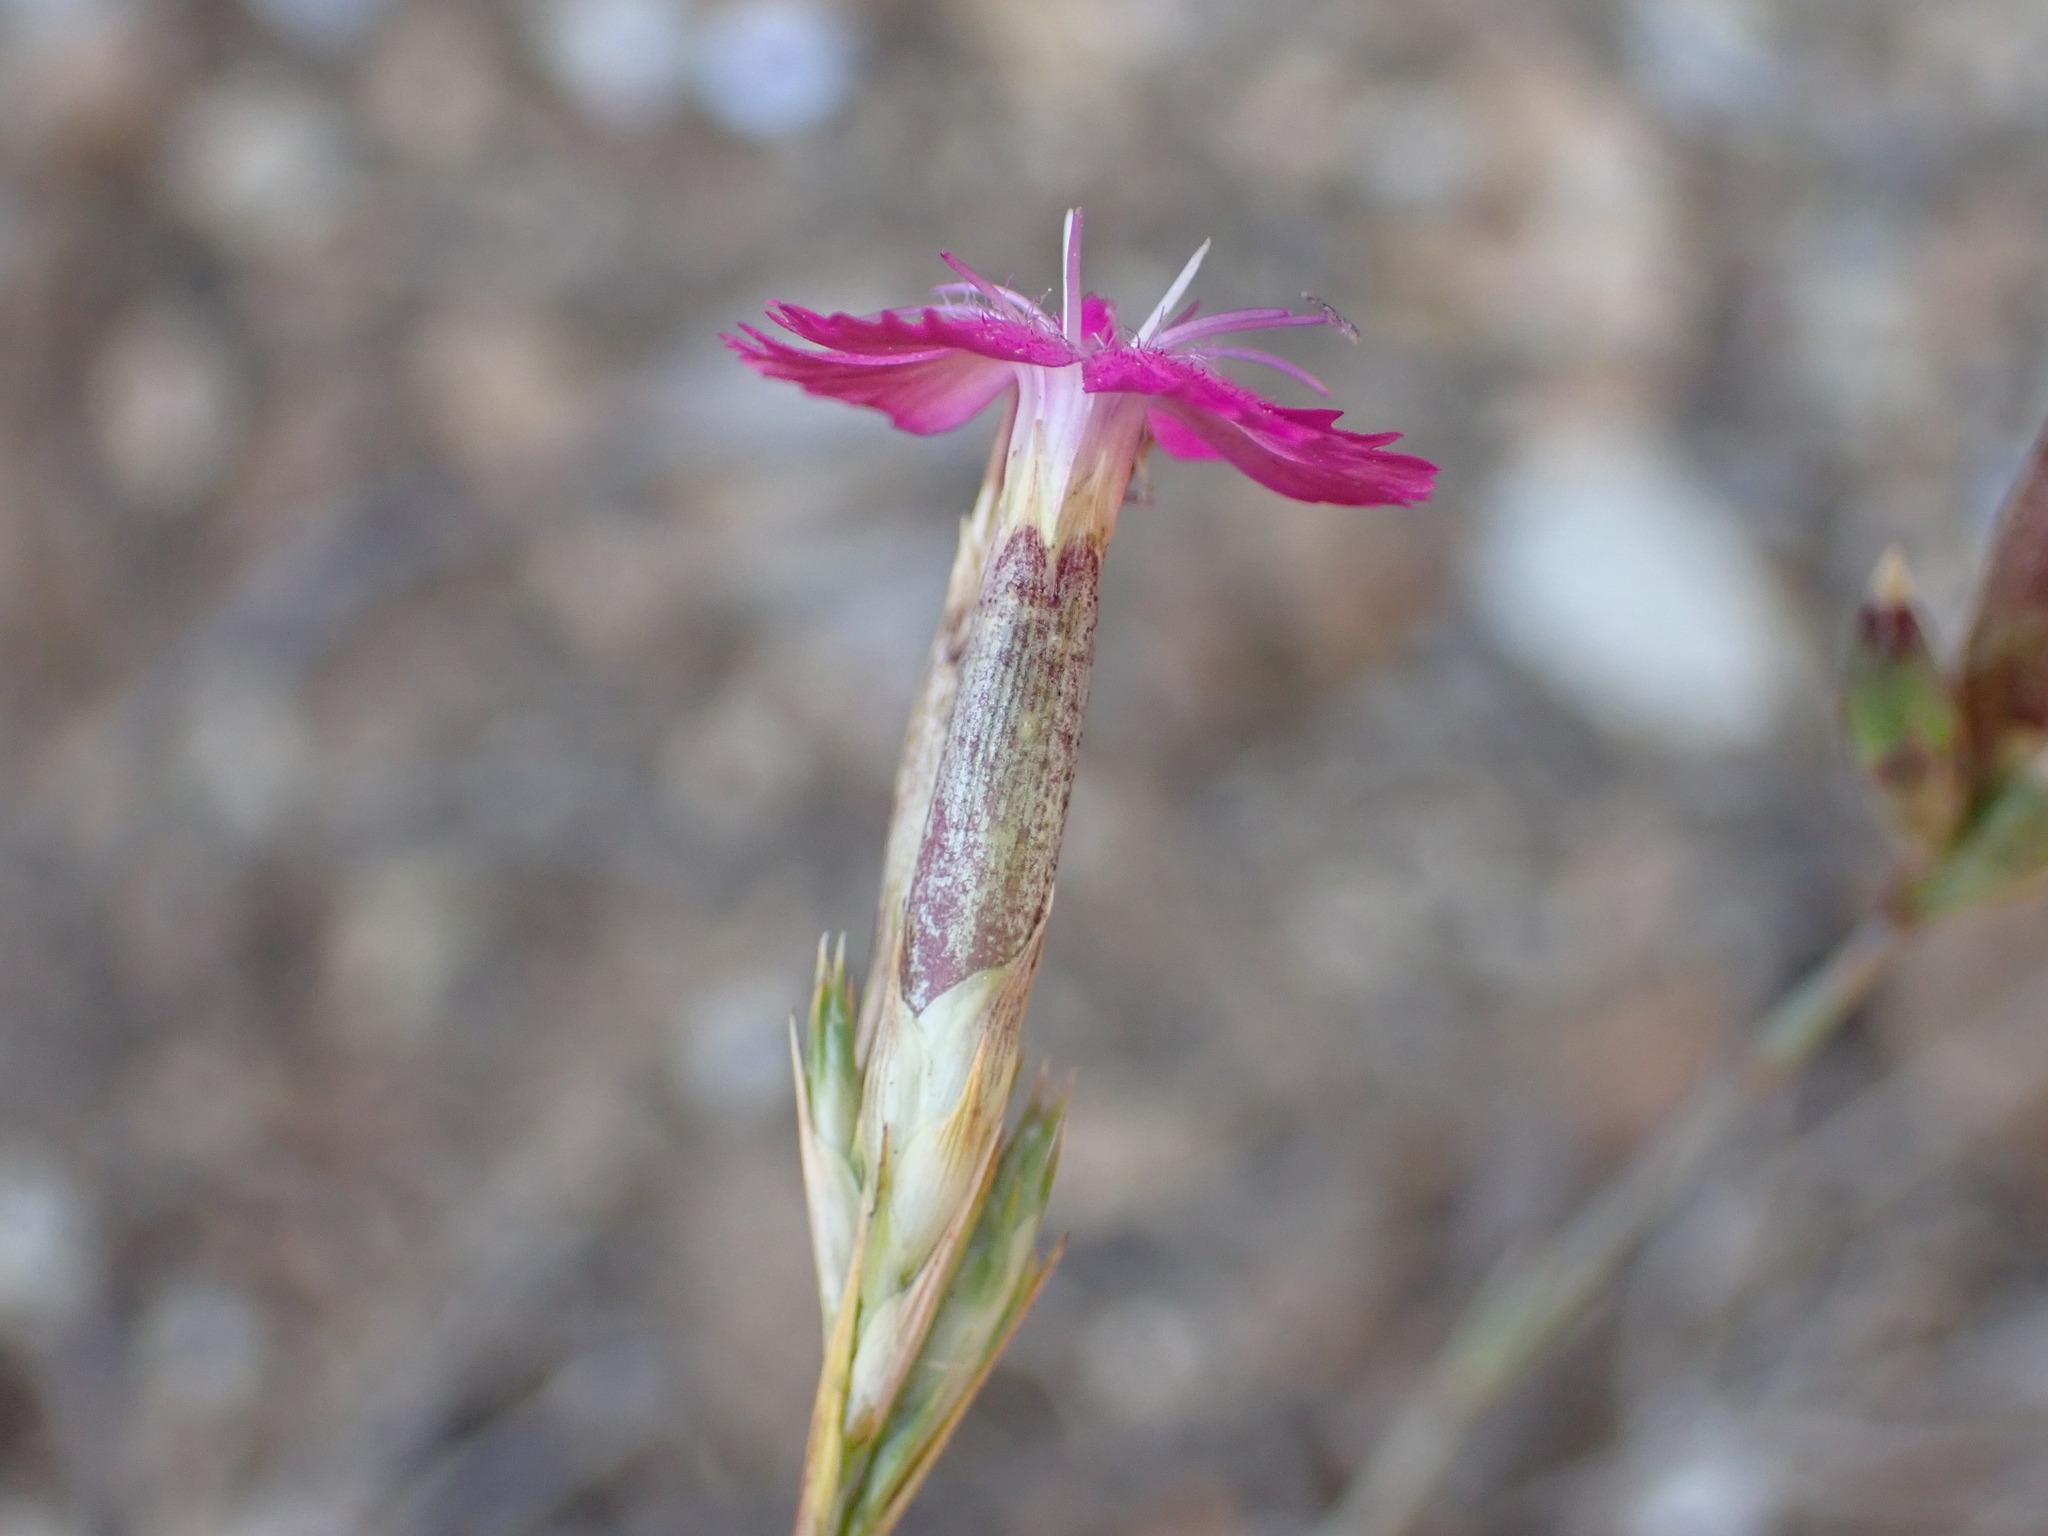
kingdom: Plantae
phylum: Tracheophyta
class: Magnoliopsida
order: Caryophyllales
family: Caryophyllaceae
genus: Dianthus
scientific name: Dianthus scaber
